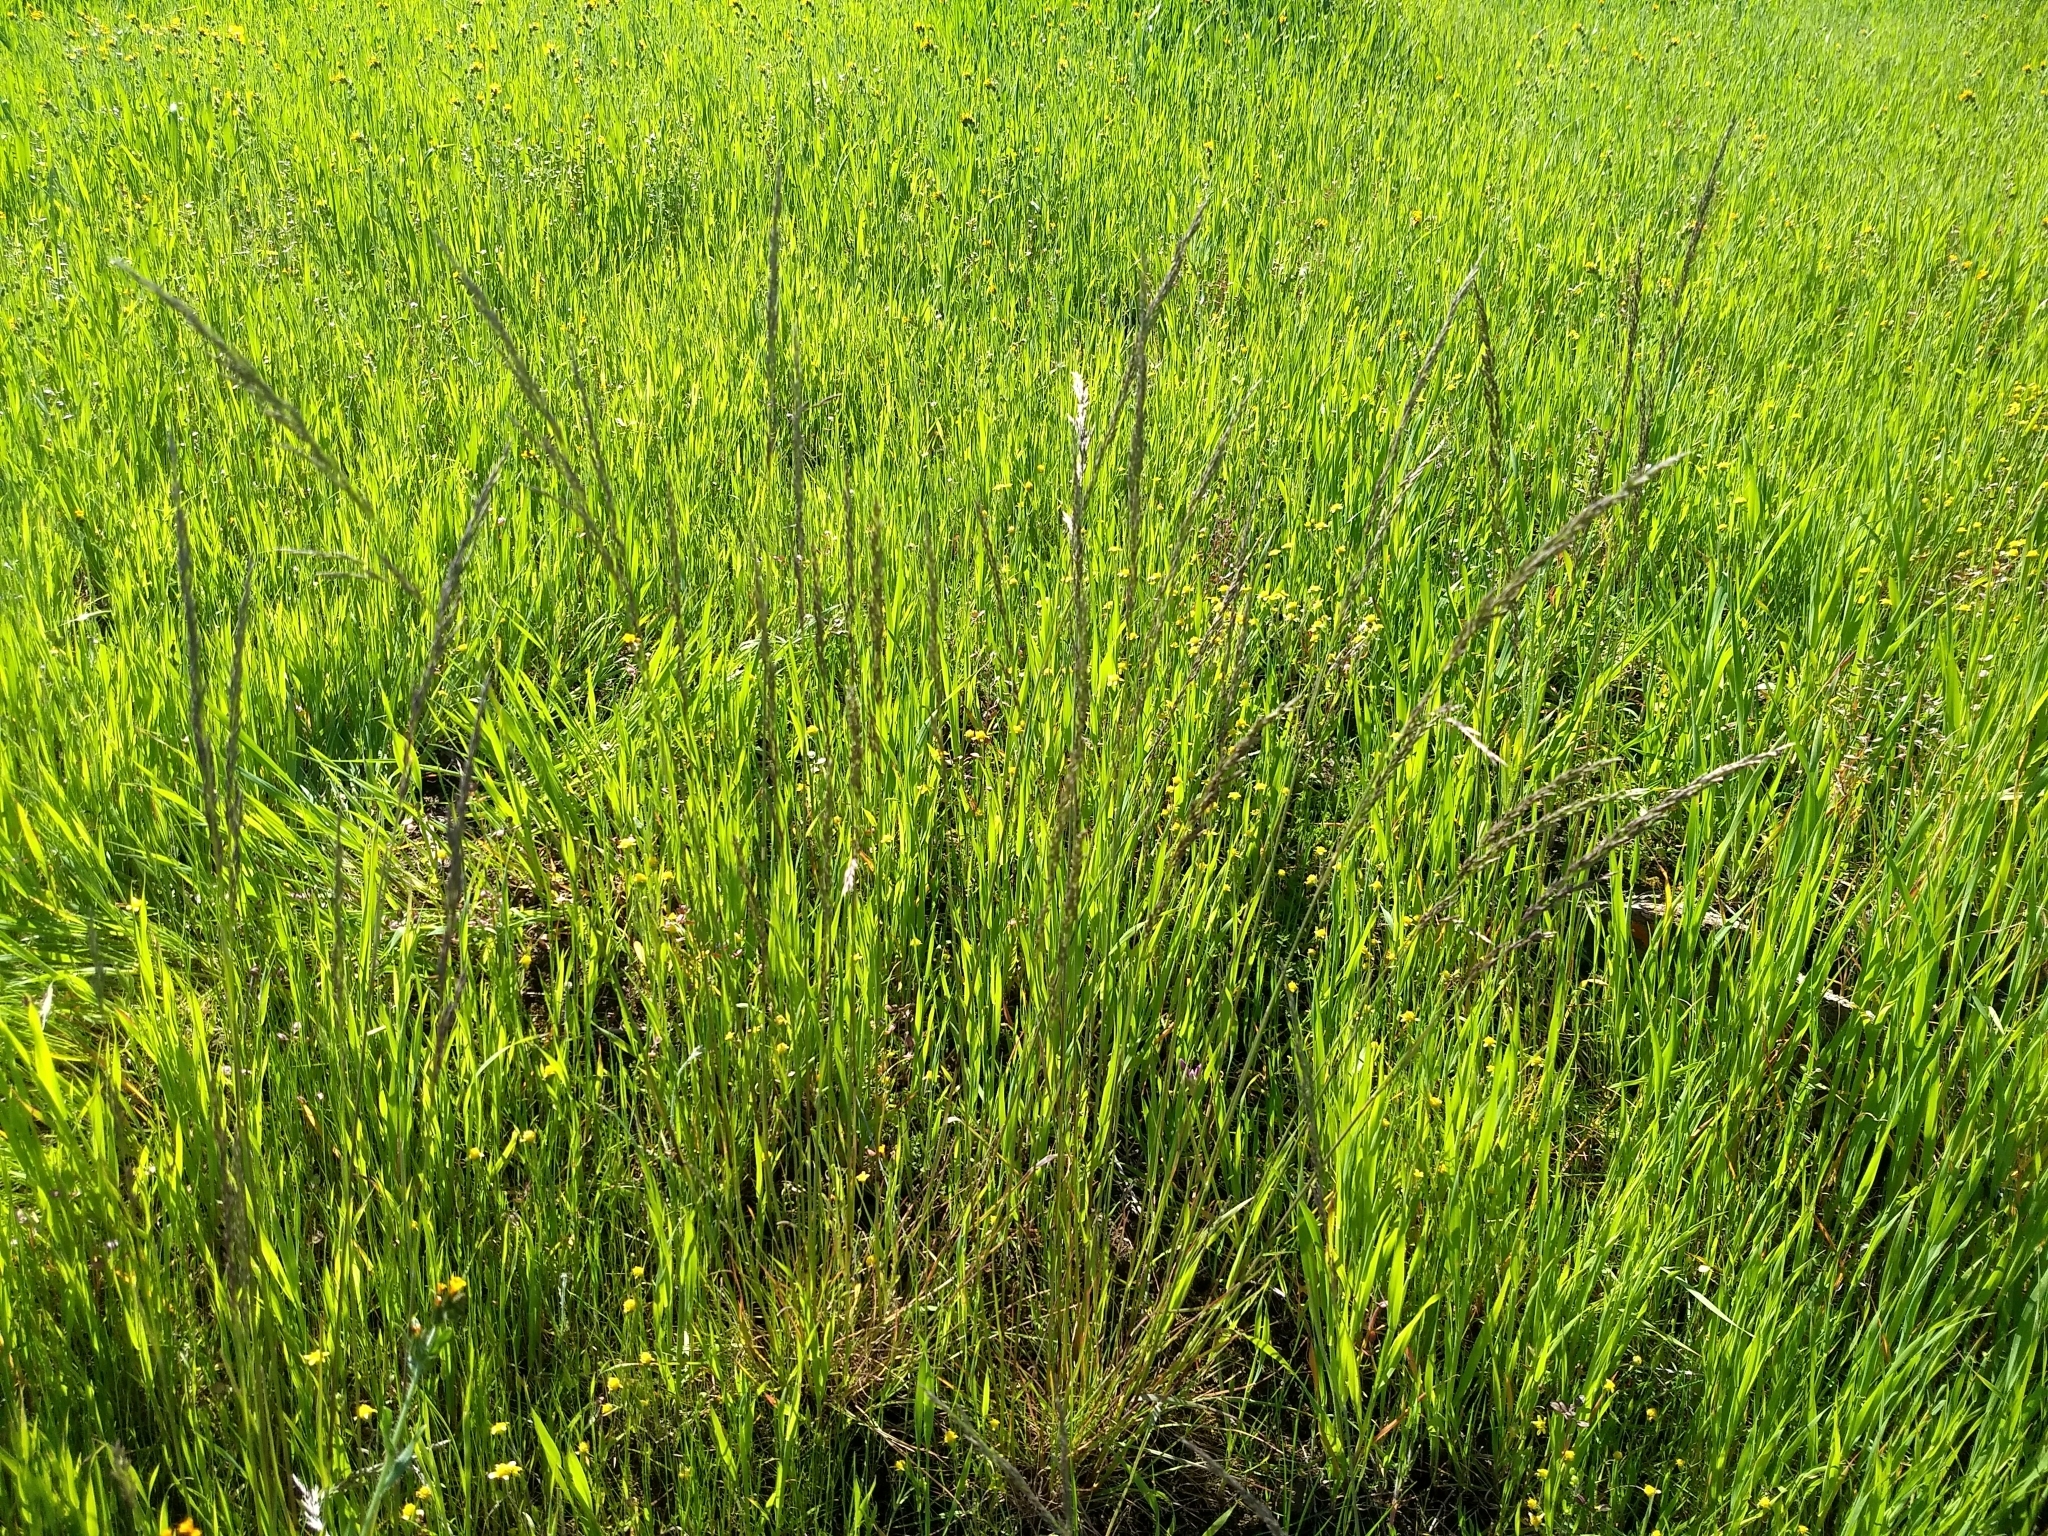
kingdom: Plantae
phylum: Tracheophyta
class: Liliopsida
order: Poales
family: Poaceae
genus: Poa
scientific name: Poa secunda
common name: Sandberg bluegrass
